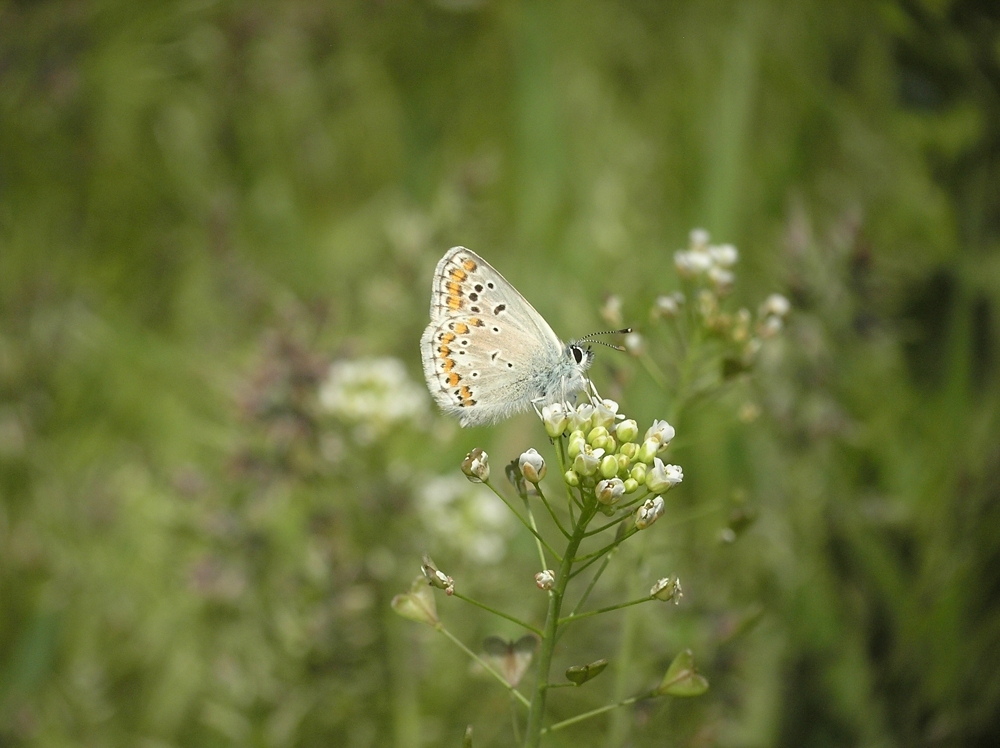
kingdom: Animalia
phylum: Arthropoda
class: Insecta
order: Lepidoptera
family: Lycaenidae
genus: Aricia
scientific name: Aricia agestis
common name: Brown argus
